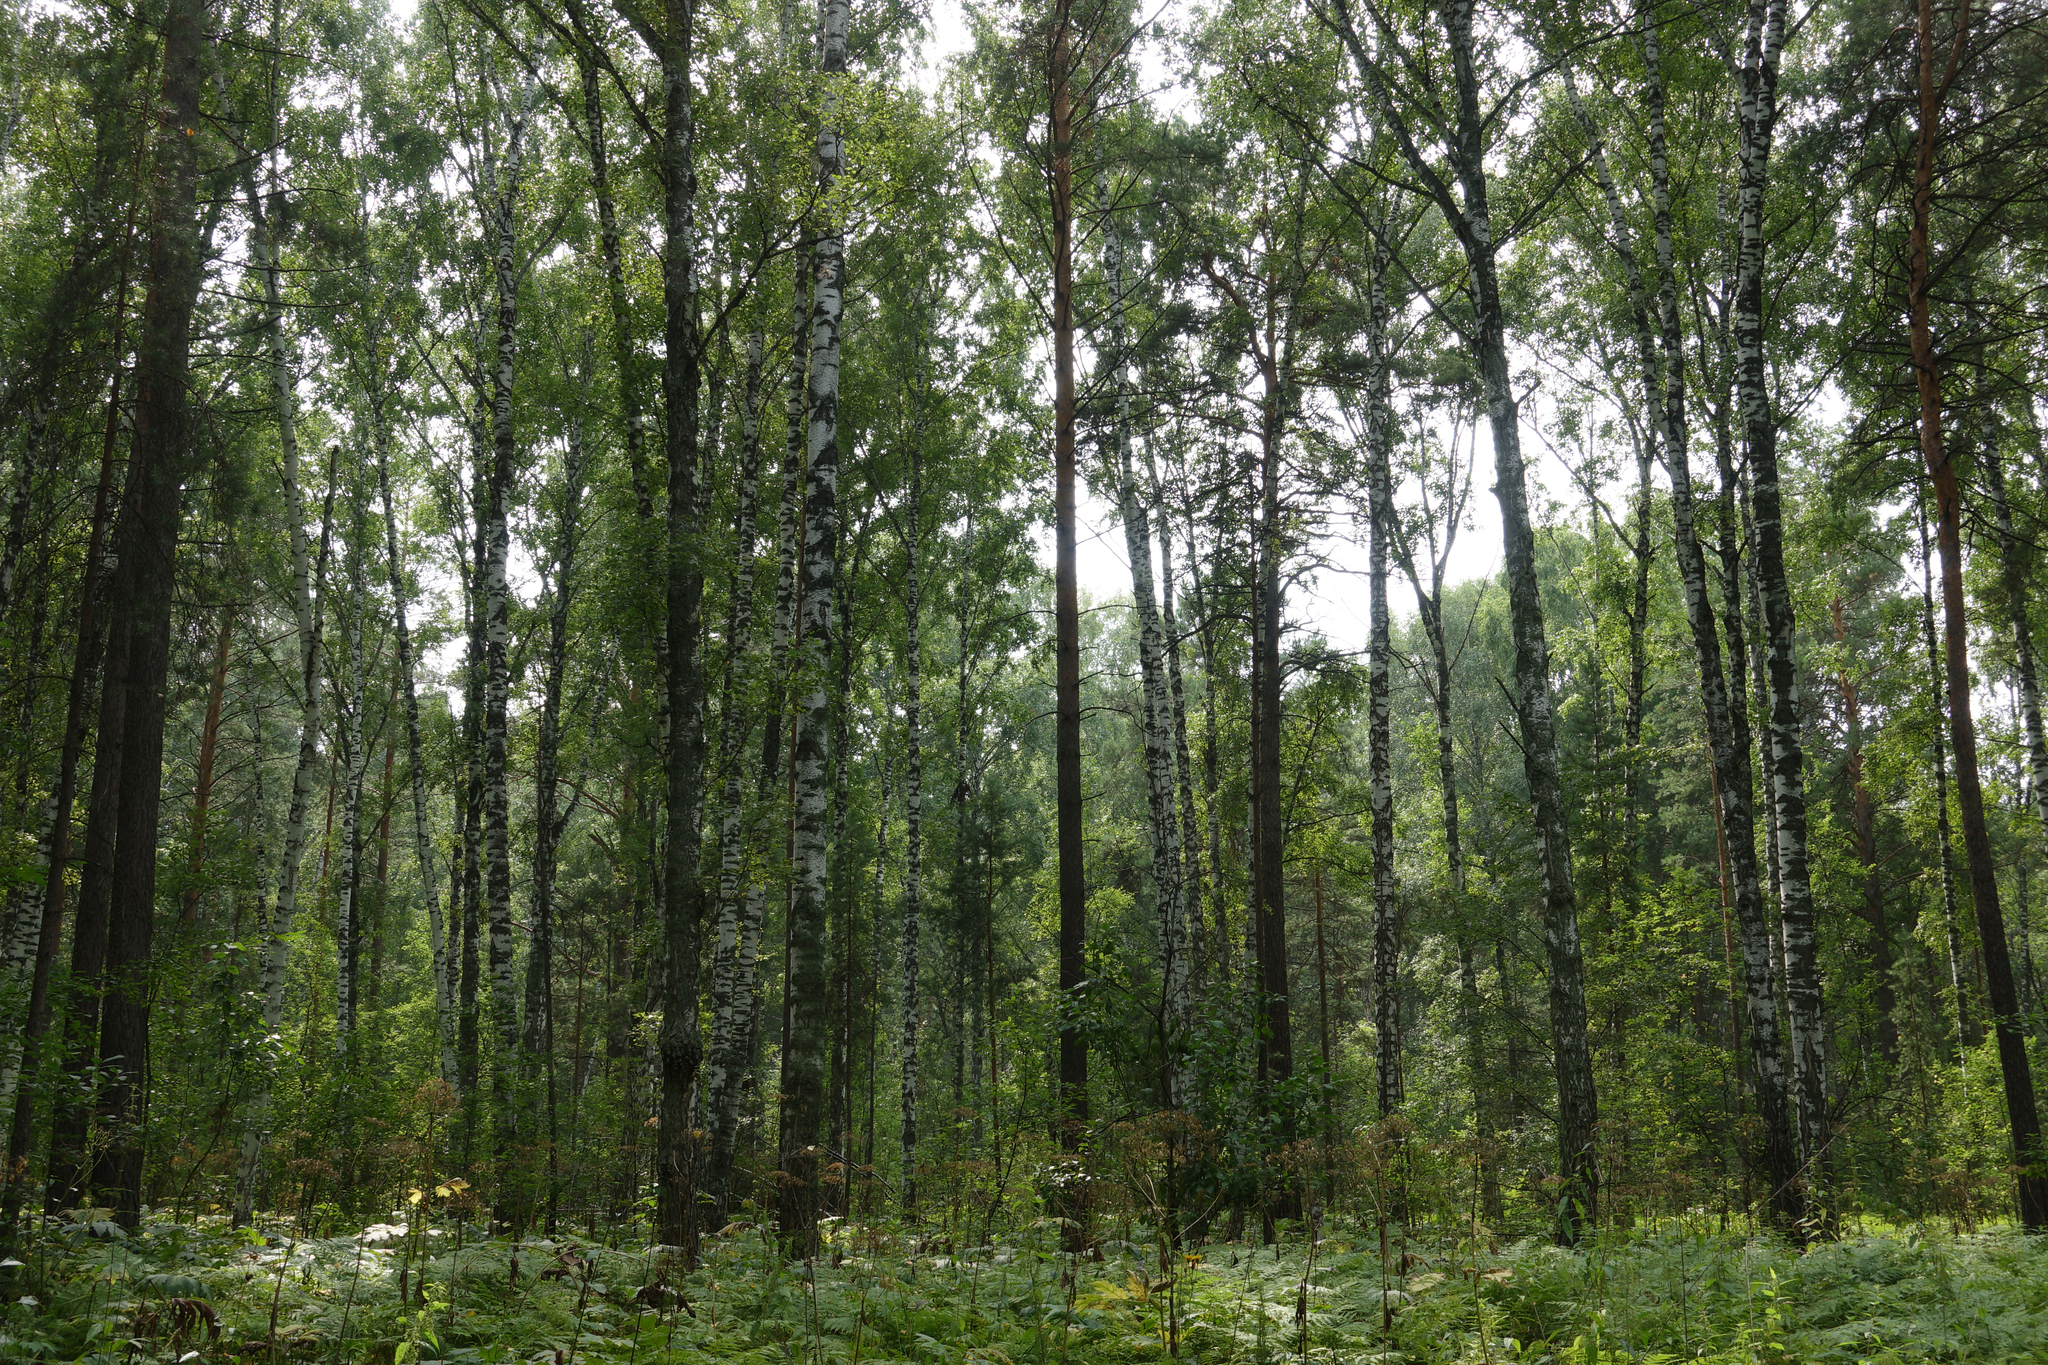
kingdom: Plantae
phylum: Tracheophyta
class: Magnoliopsida
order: Fagales
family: Betulaceae
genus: Betula
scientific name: Betula pendula
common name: Silver birch
